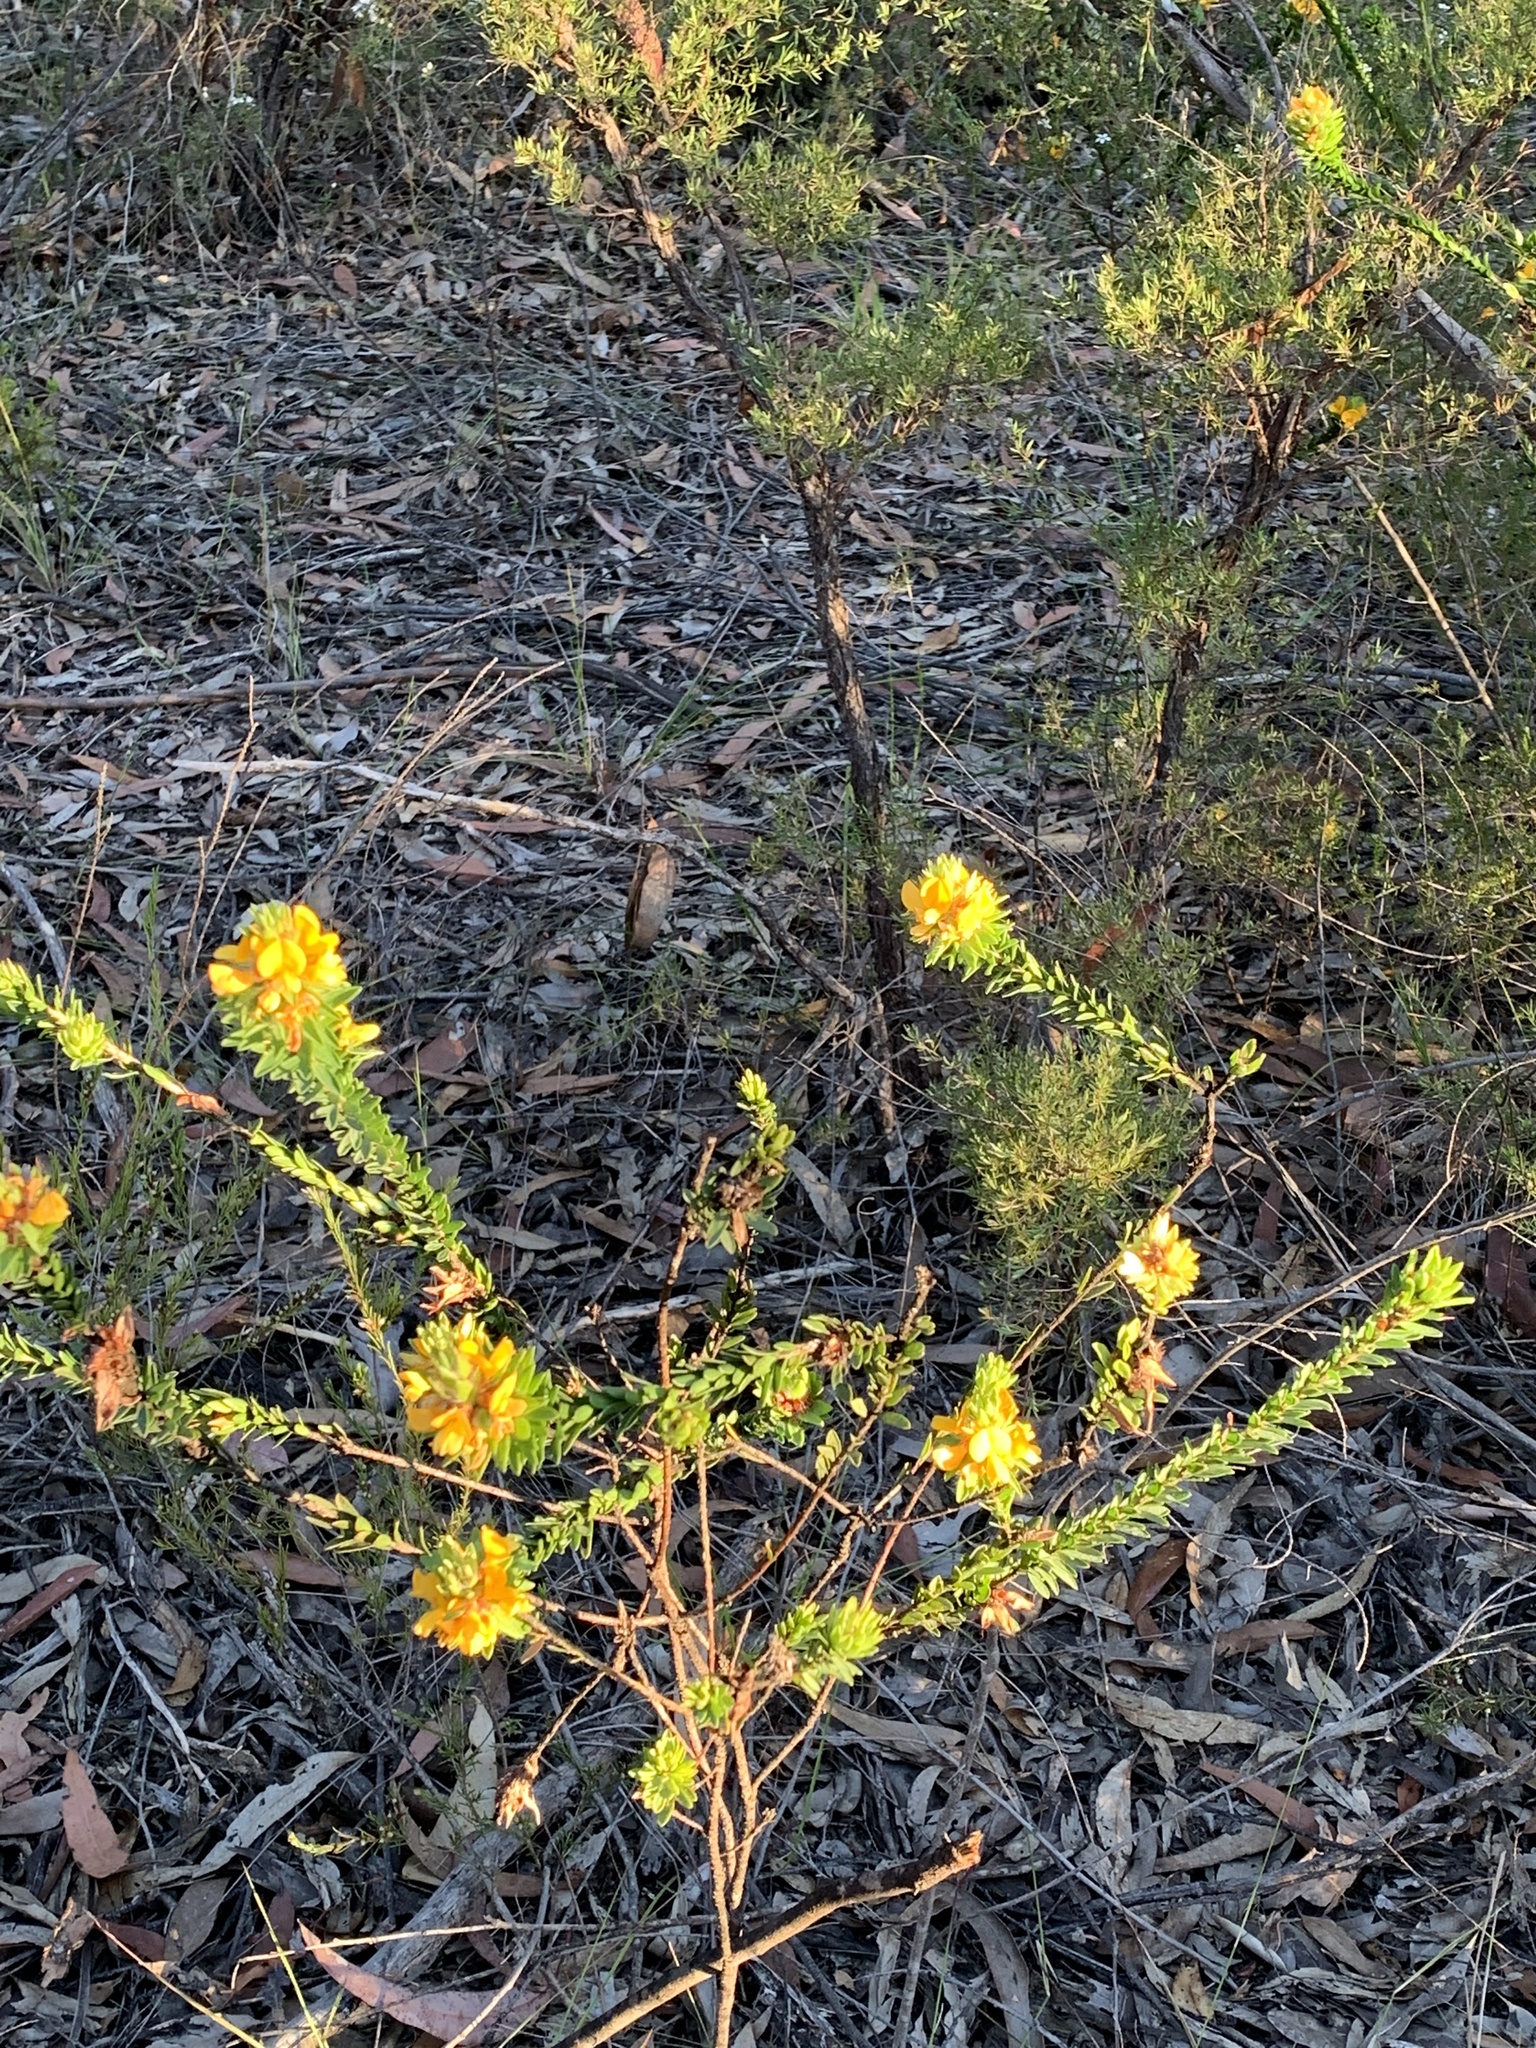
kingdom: Plantae
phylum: Tracheophyta
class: Magnoliopsida
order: Fabales
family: Fabaceae
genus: Pultenaea
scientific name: Pultenaea tuberculata
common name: Wreath bush-pea
